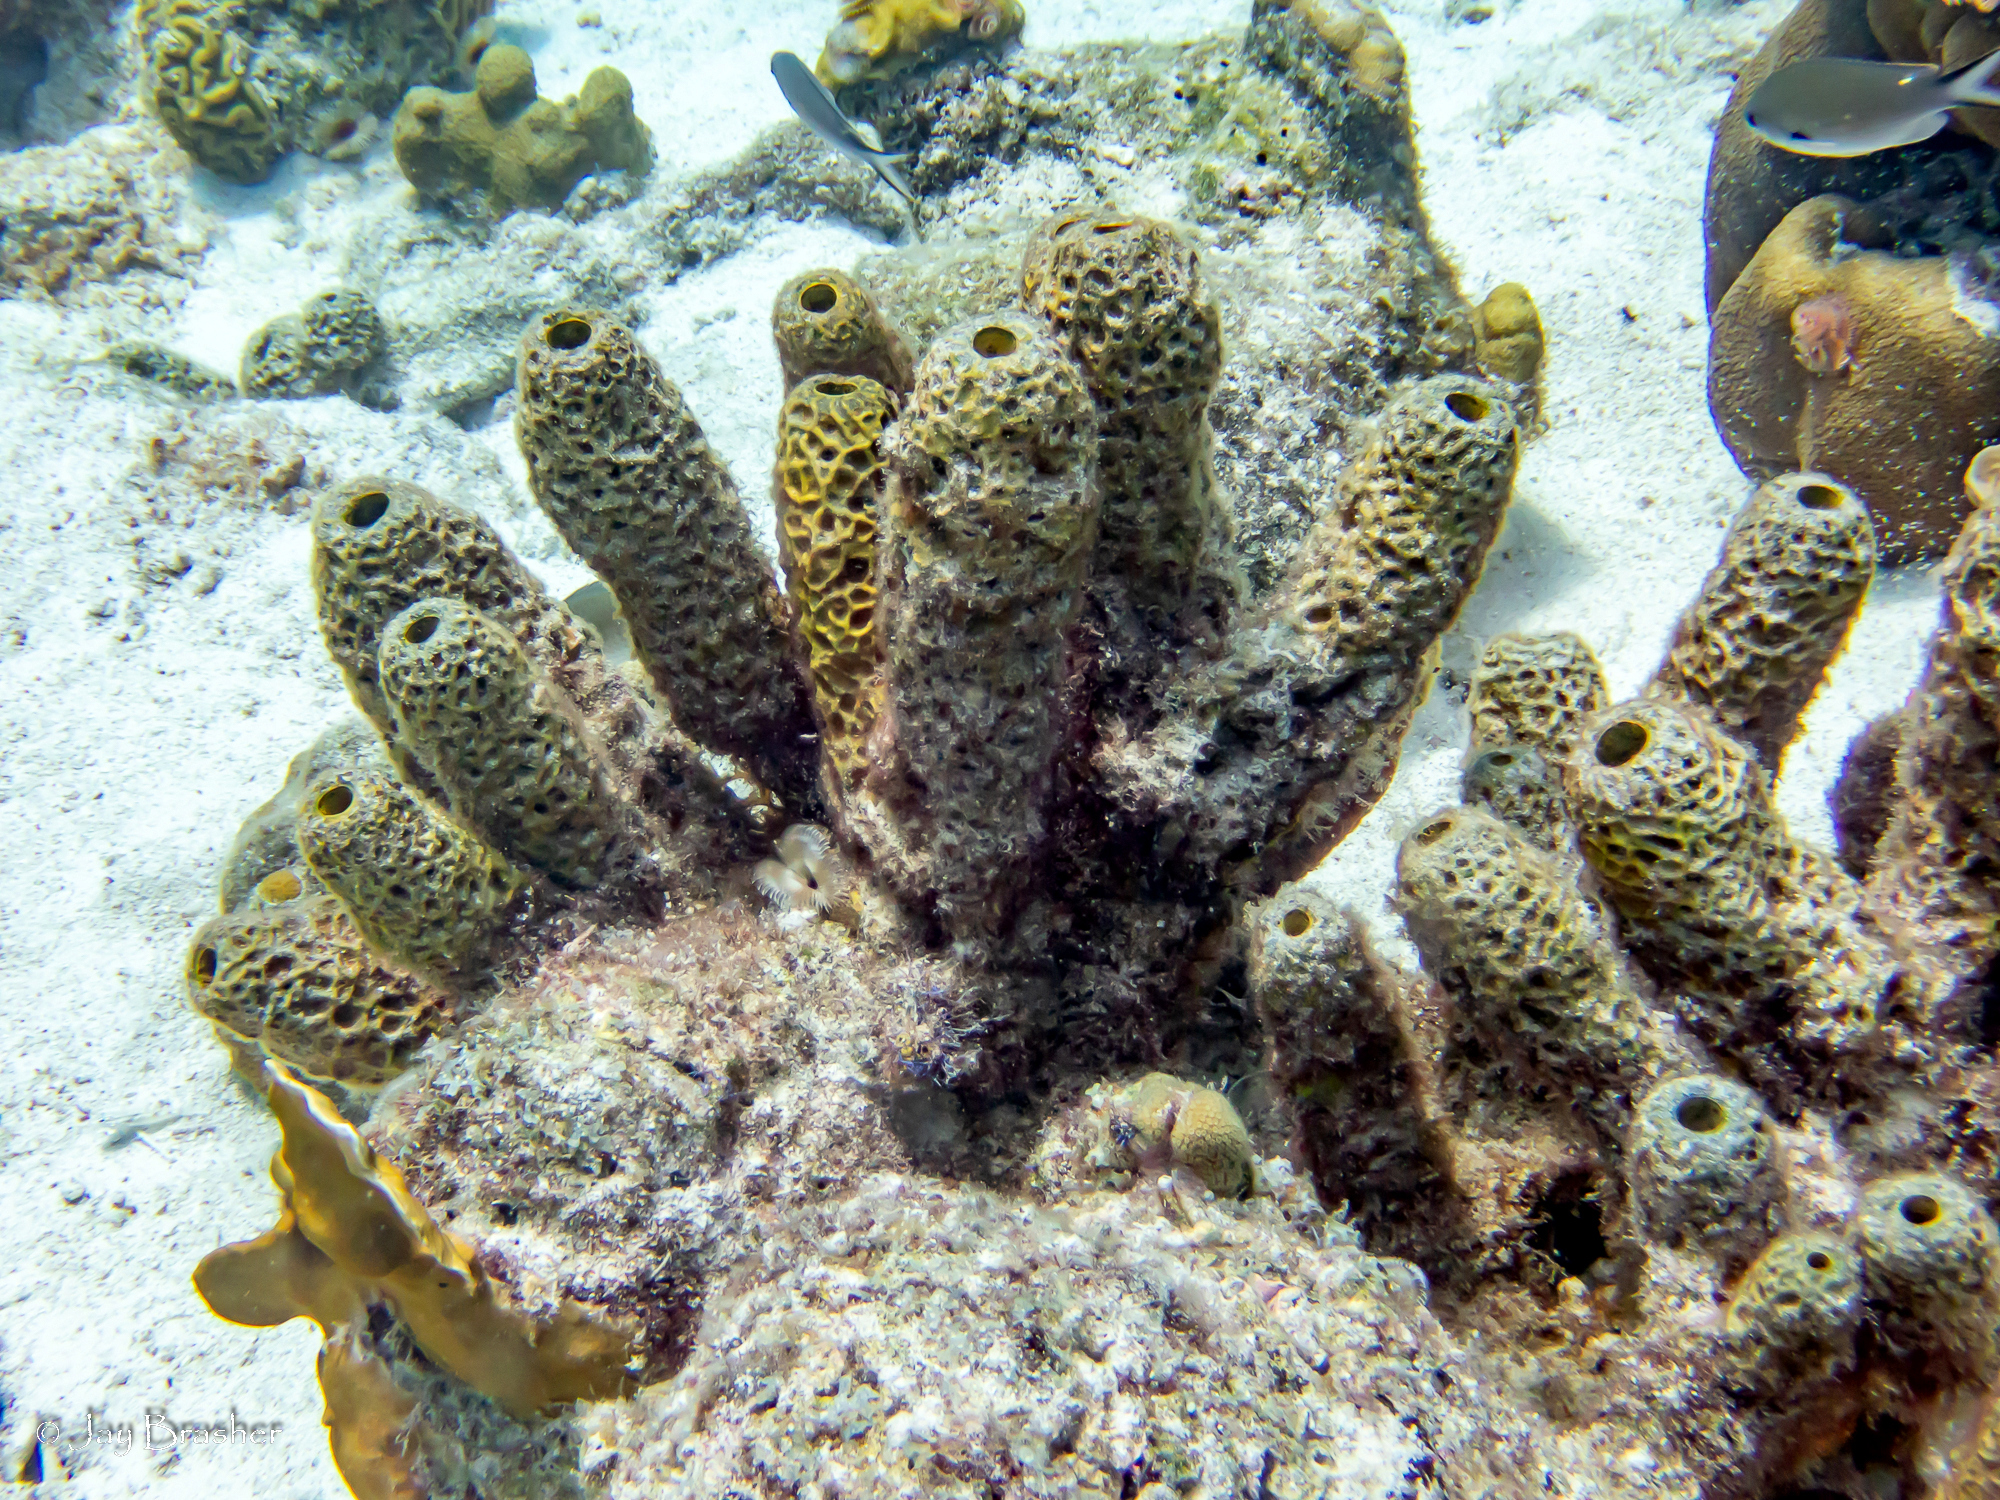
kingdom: Animalia
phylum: Porifera
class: Demospongiae
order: Verongiida
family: Aplysinidae
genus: Verongula
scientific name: Verongula rigida
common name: Pitted sponge
